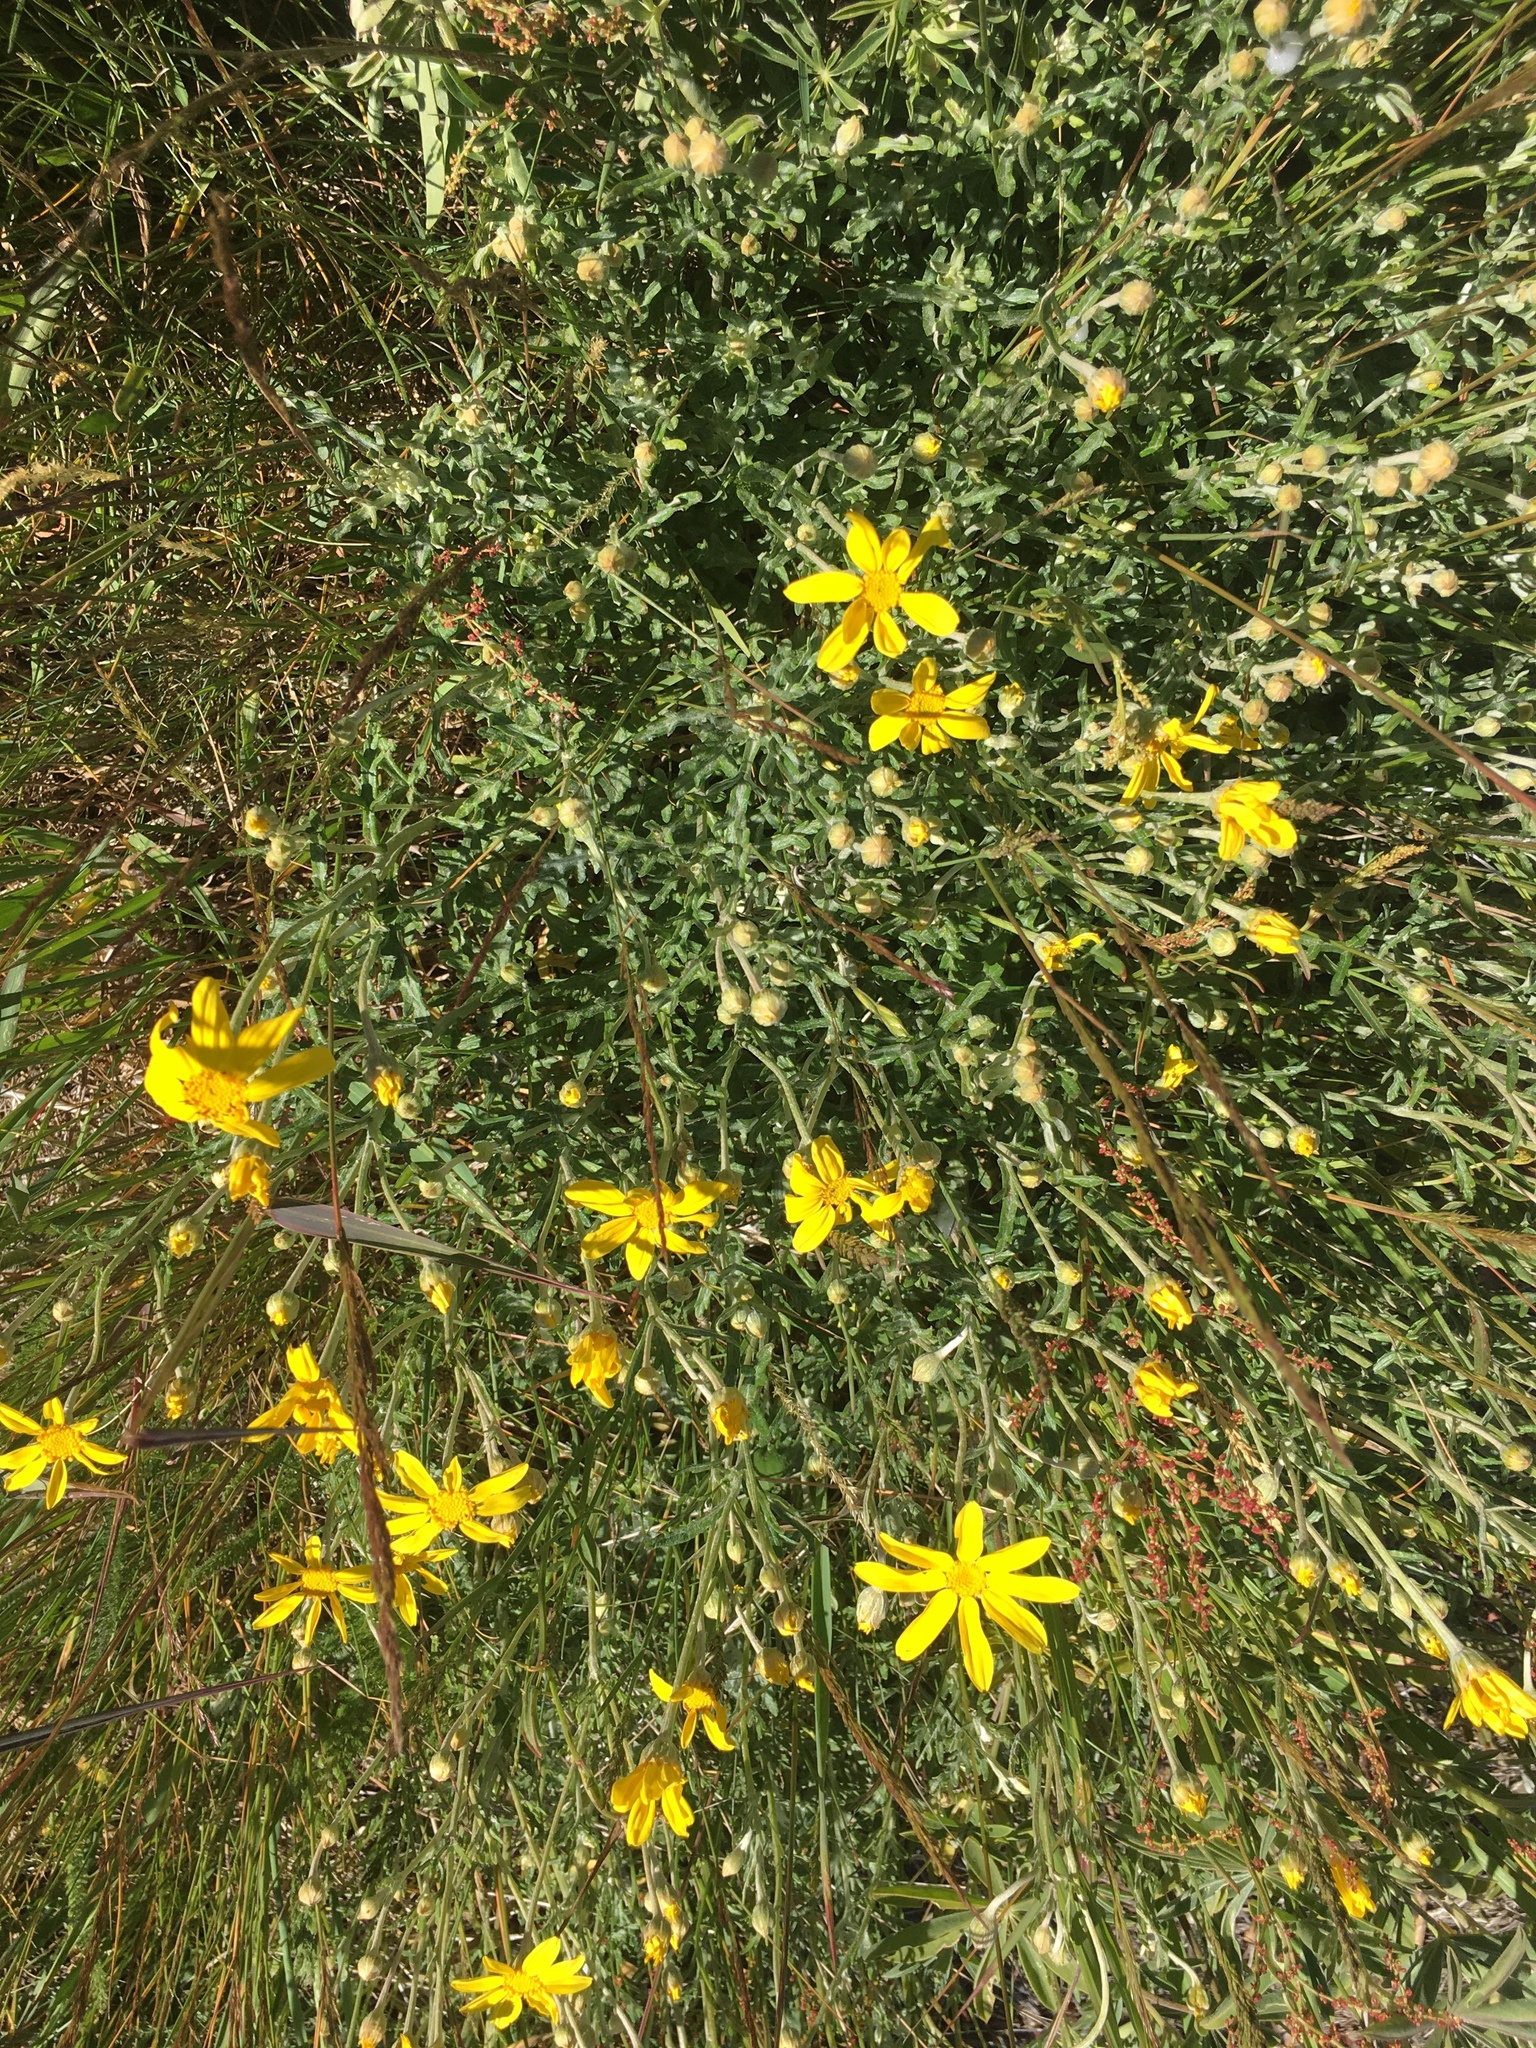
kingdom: Plantae
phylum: Tracheophyta
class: Magnoliopsida
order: Asterales
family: Asteraceae
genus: Eriophyllum
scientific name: Eriophyllum lanatum
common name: Common woolly-sunflower
